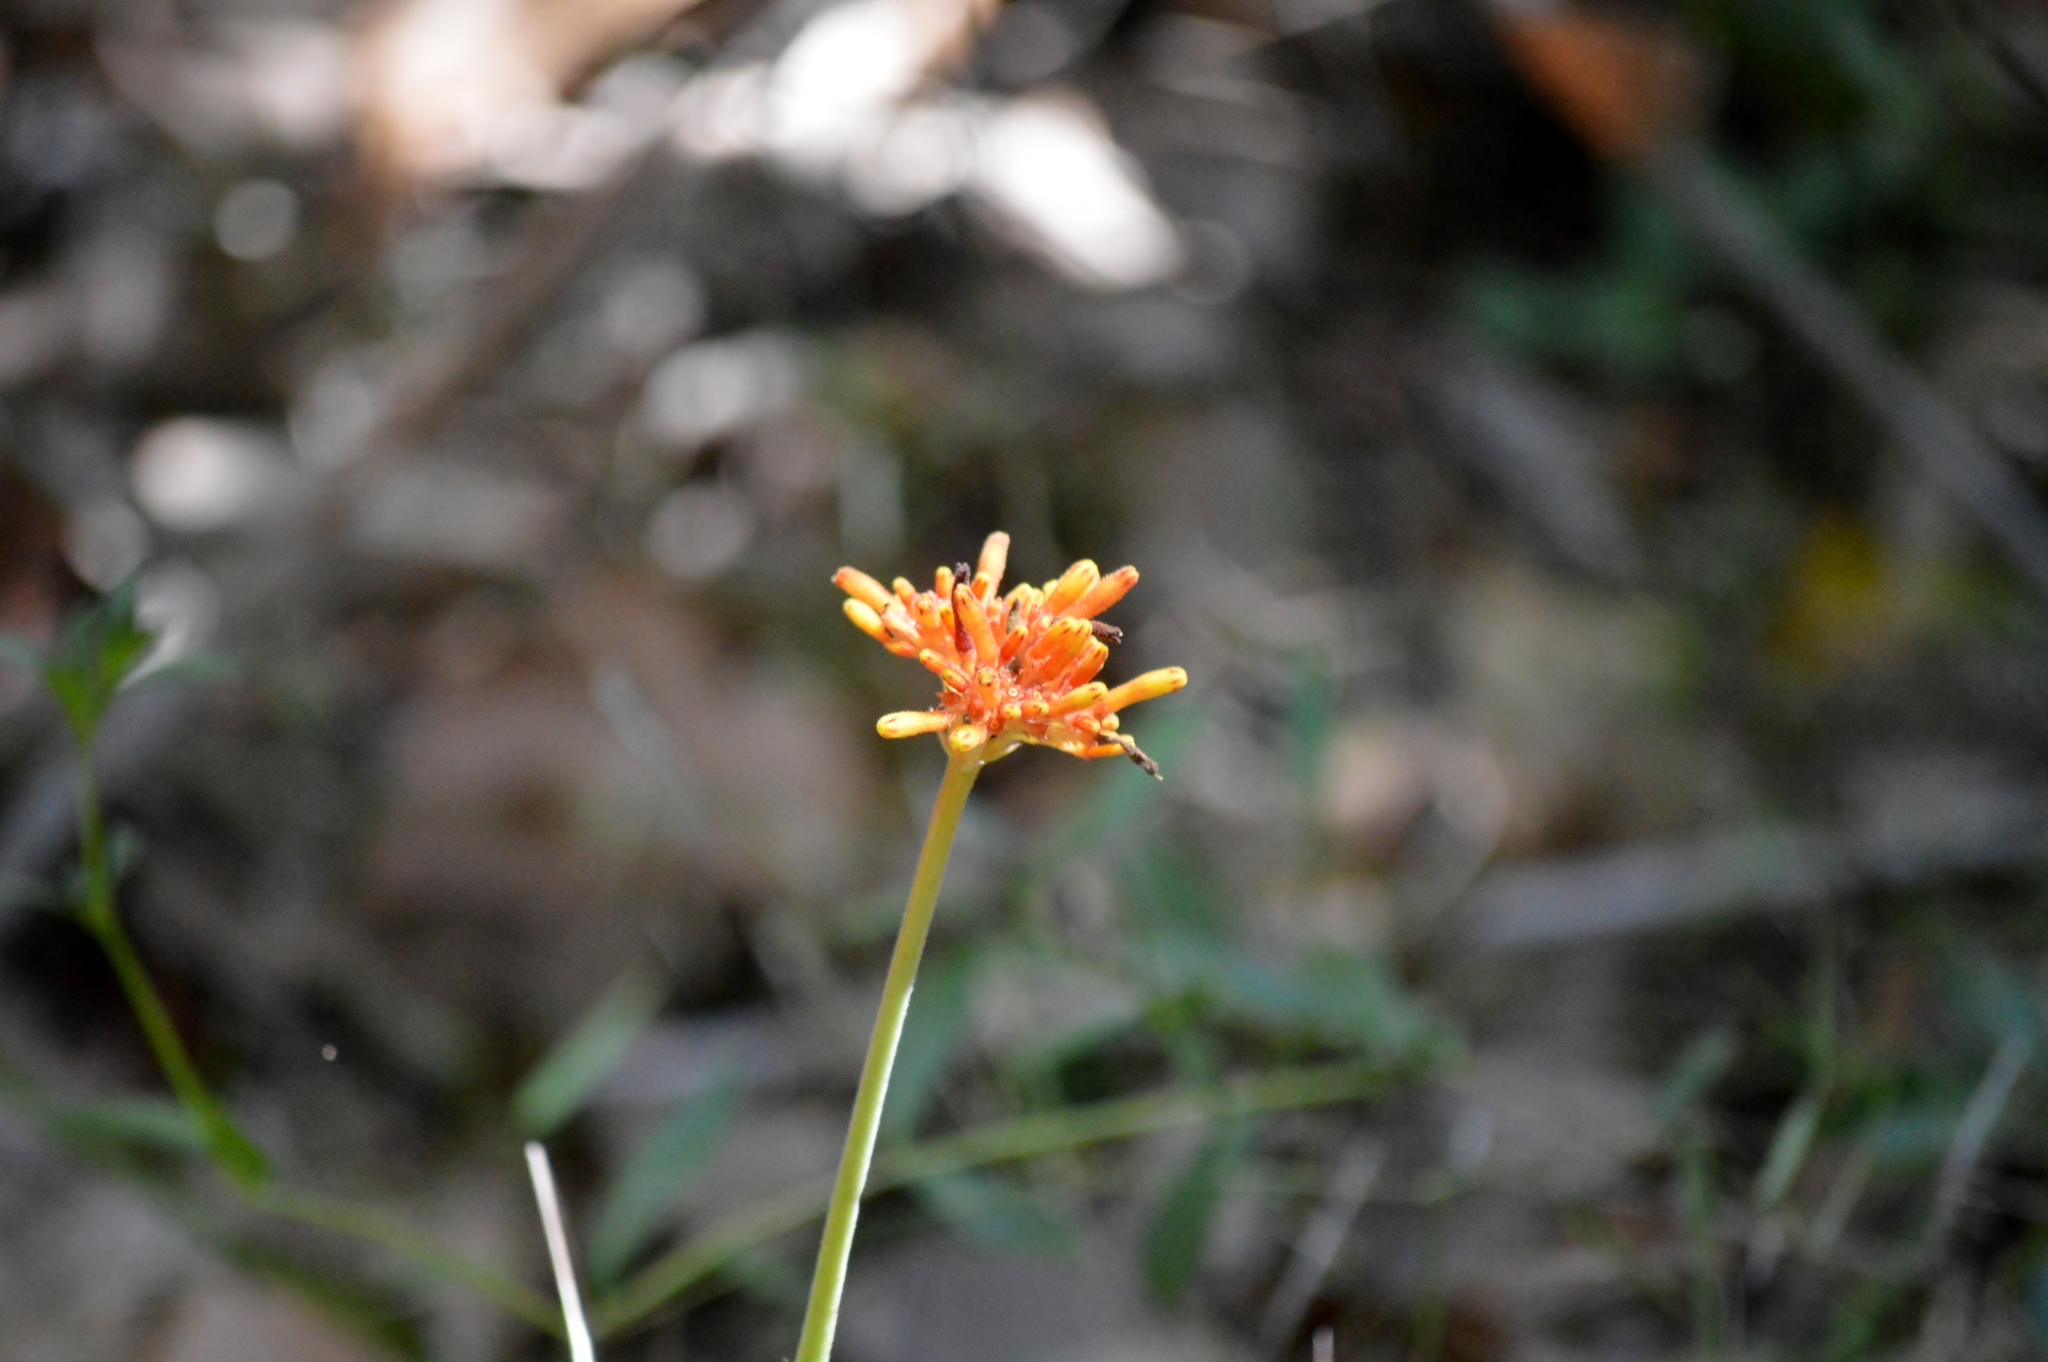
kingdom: Plantae
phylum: Tracheophyta
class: Magnoliopsida
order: Gentianales
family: Rubiaceae
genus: Palicourea
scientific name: Palicourea officinalis
